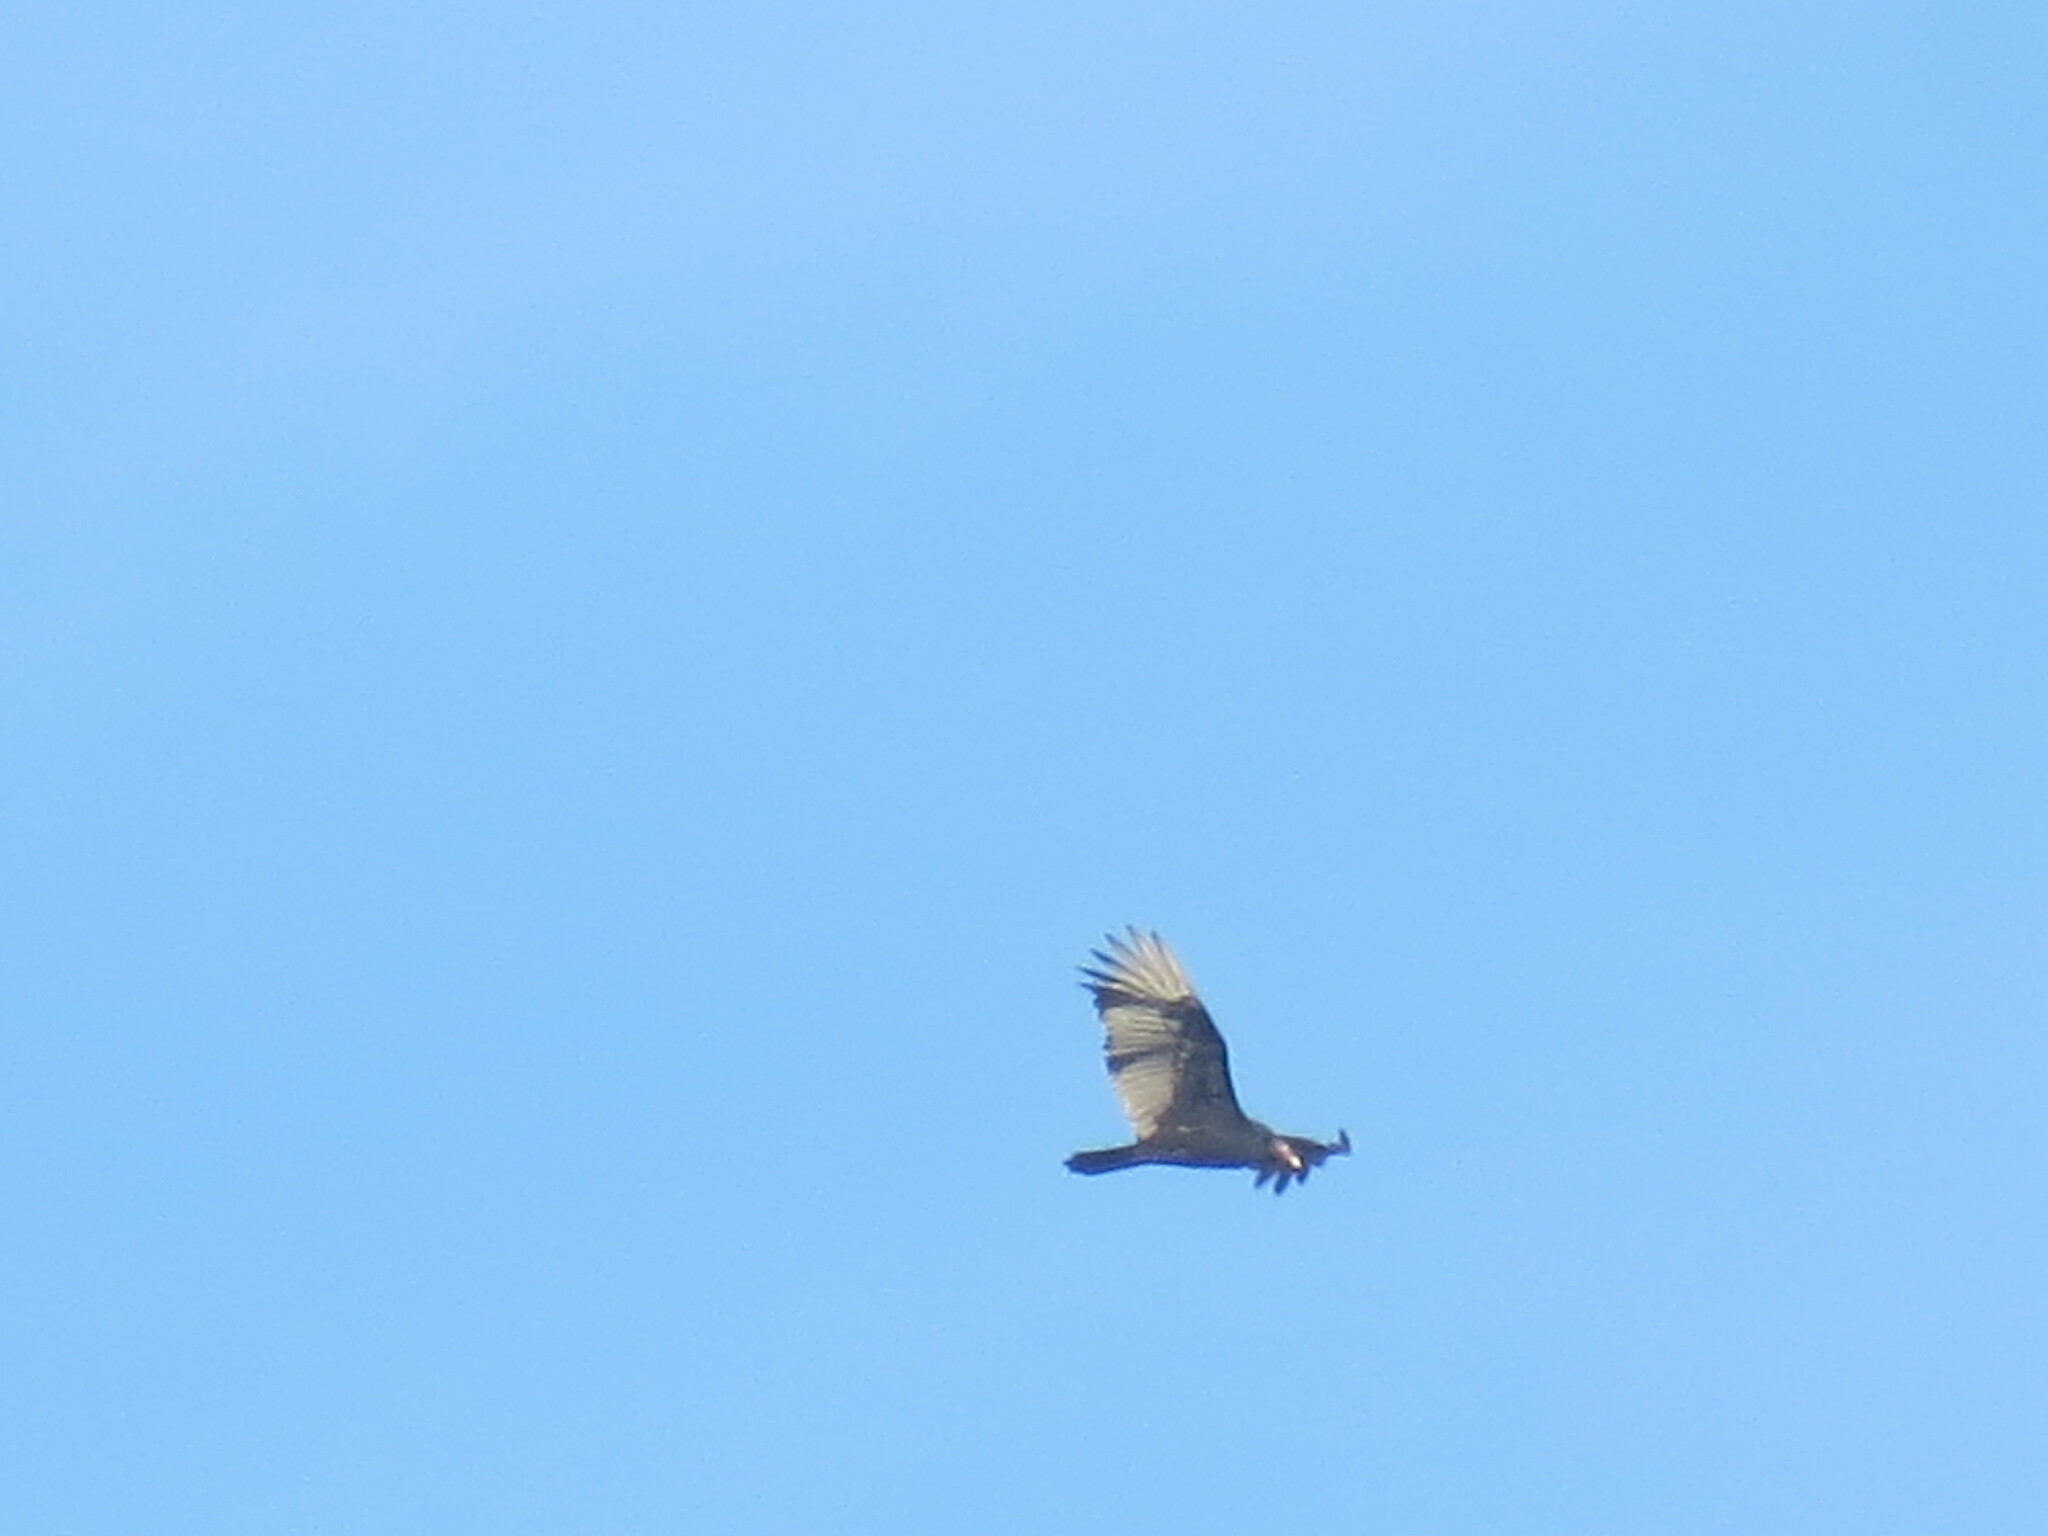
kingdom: Animalia
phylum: Chordata
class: Aves
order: Accipitriformes
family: Cathartidae
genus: Cathartes
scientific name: Cathartes aura
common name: Turkey vulture
